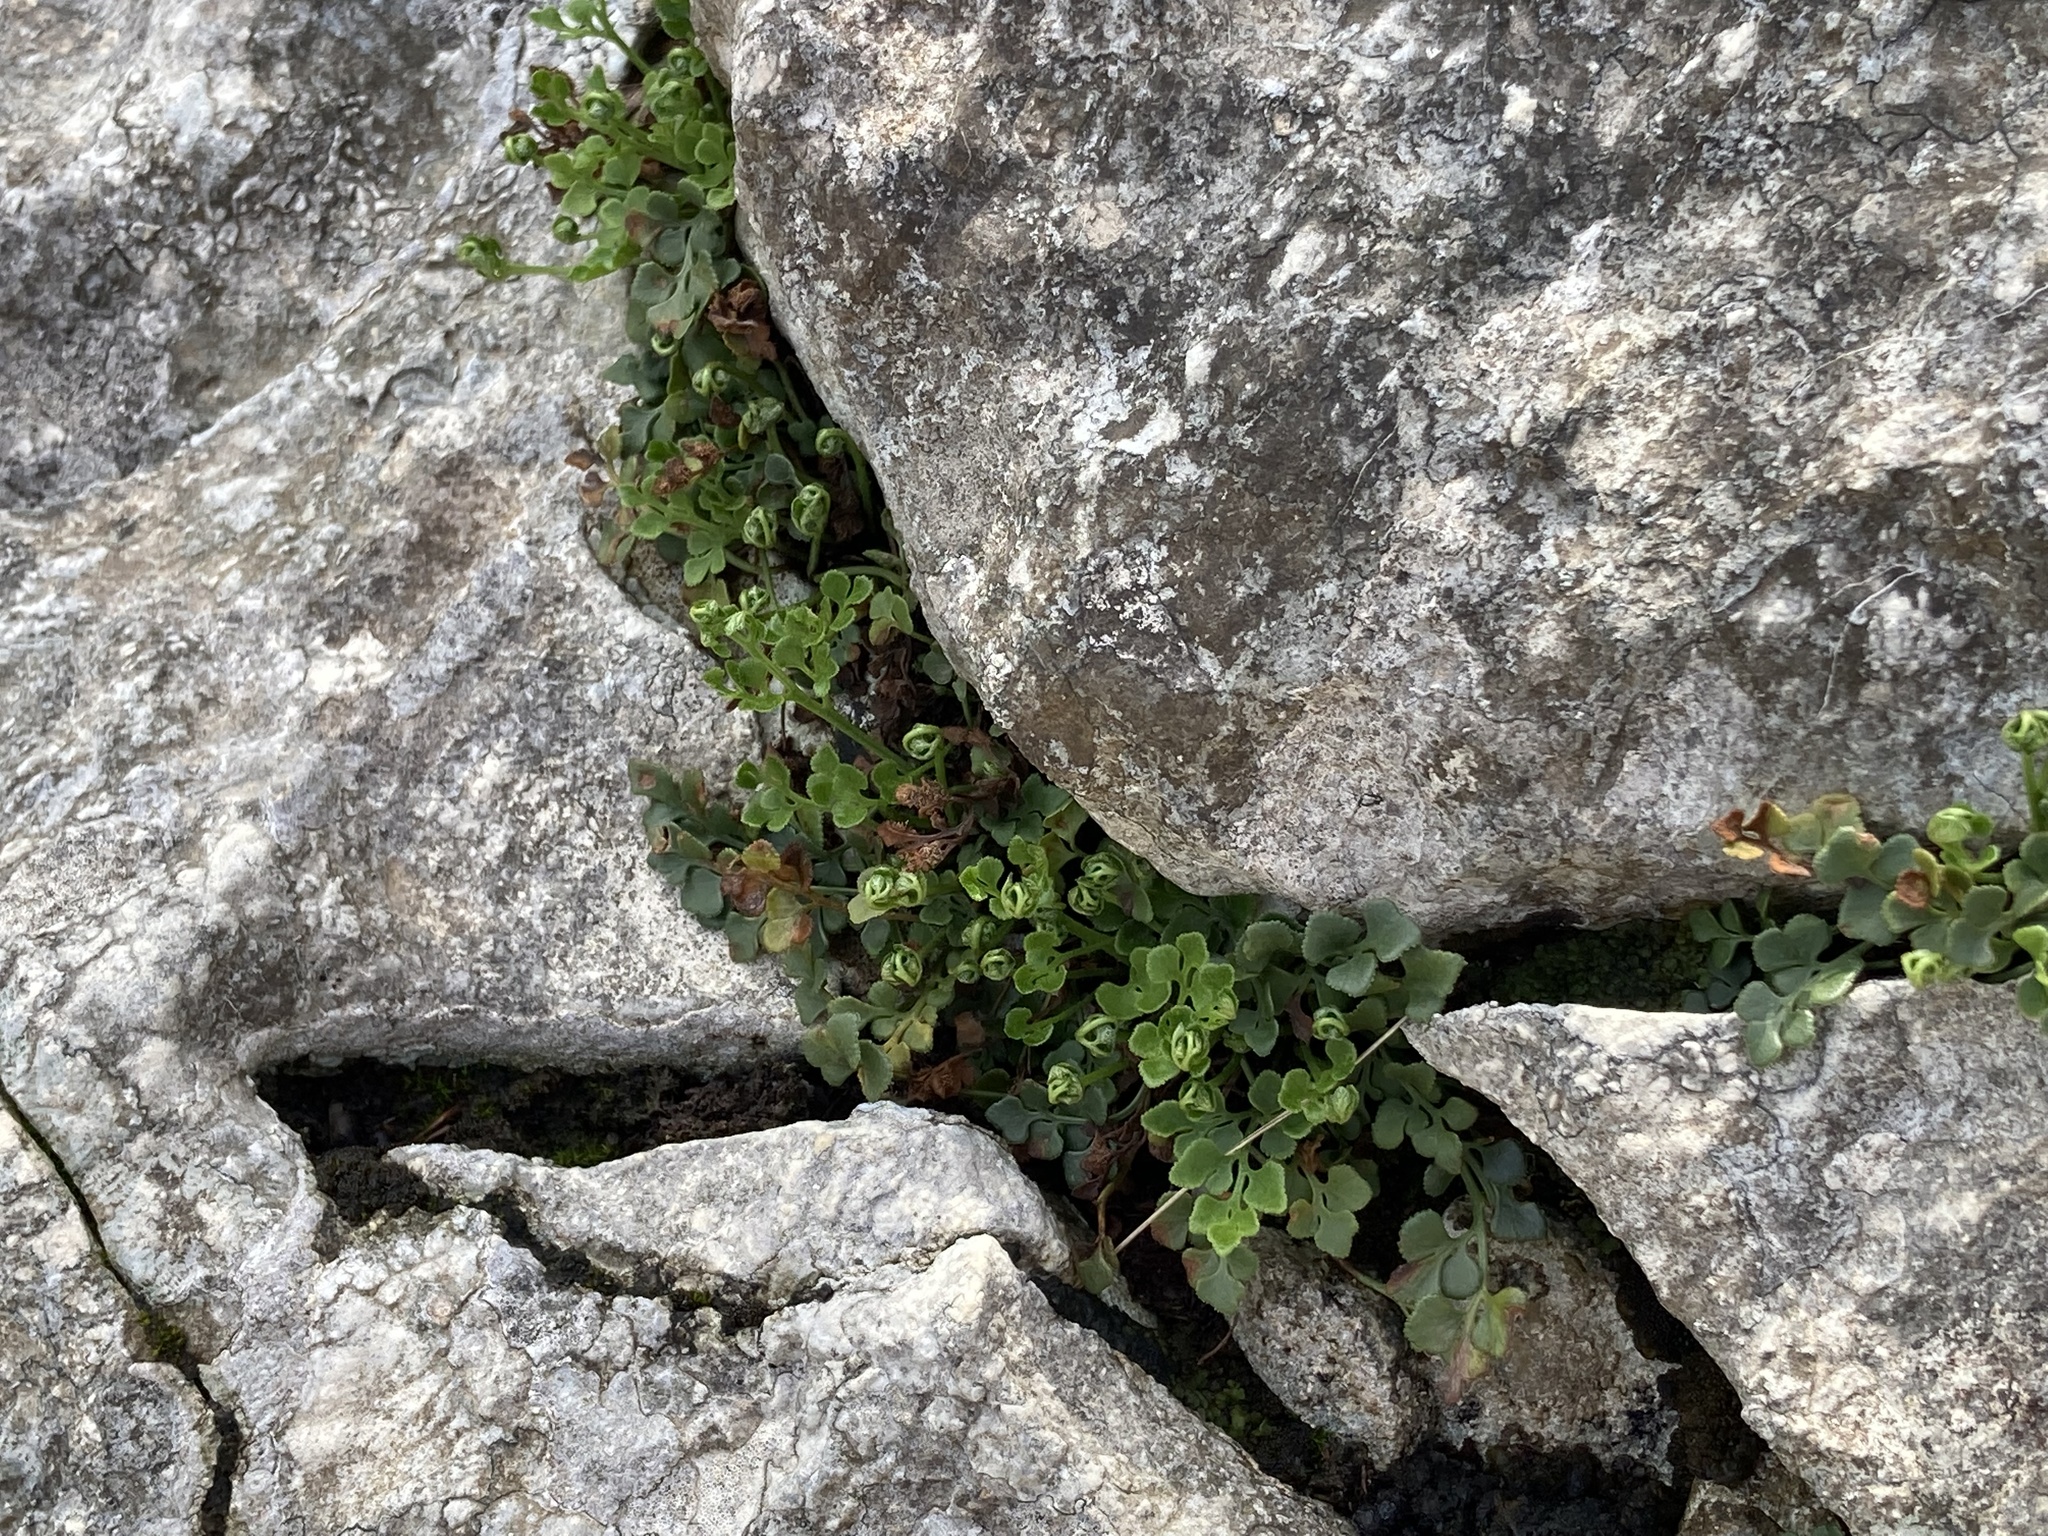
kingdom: Plantae
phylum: Tracheophyta
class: Polypodiopsida
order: Polypodiales
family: Aspleniaceae
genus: Asplenium
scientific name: Asplenium ruta-muraria
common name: Wall-rue
